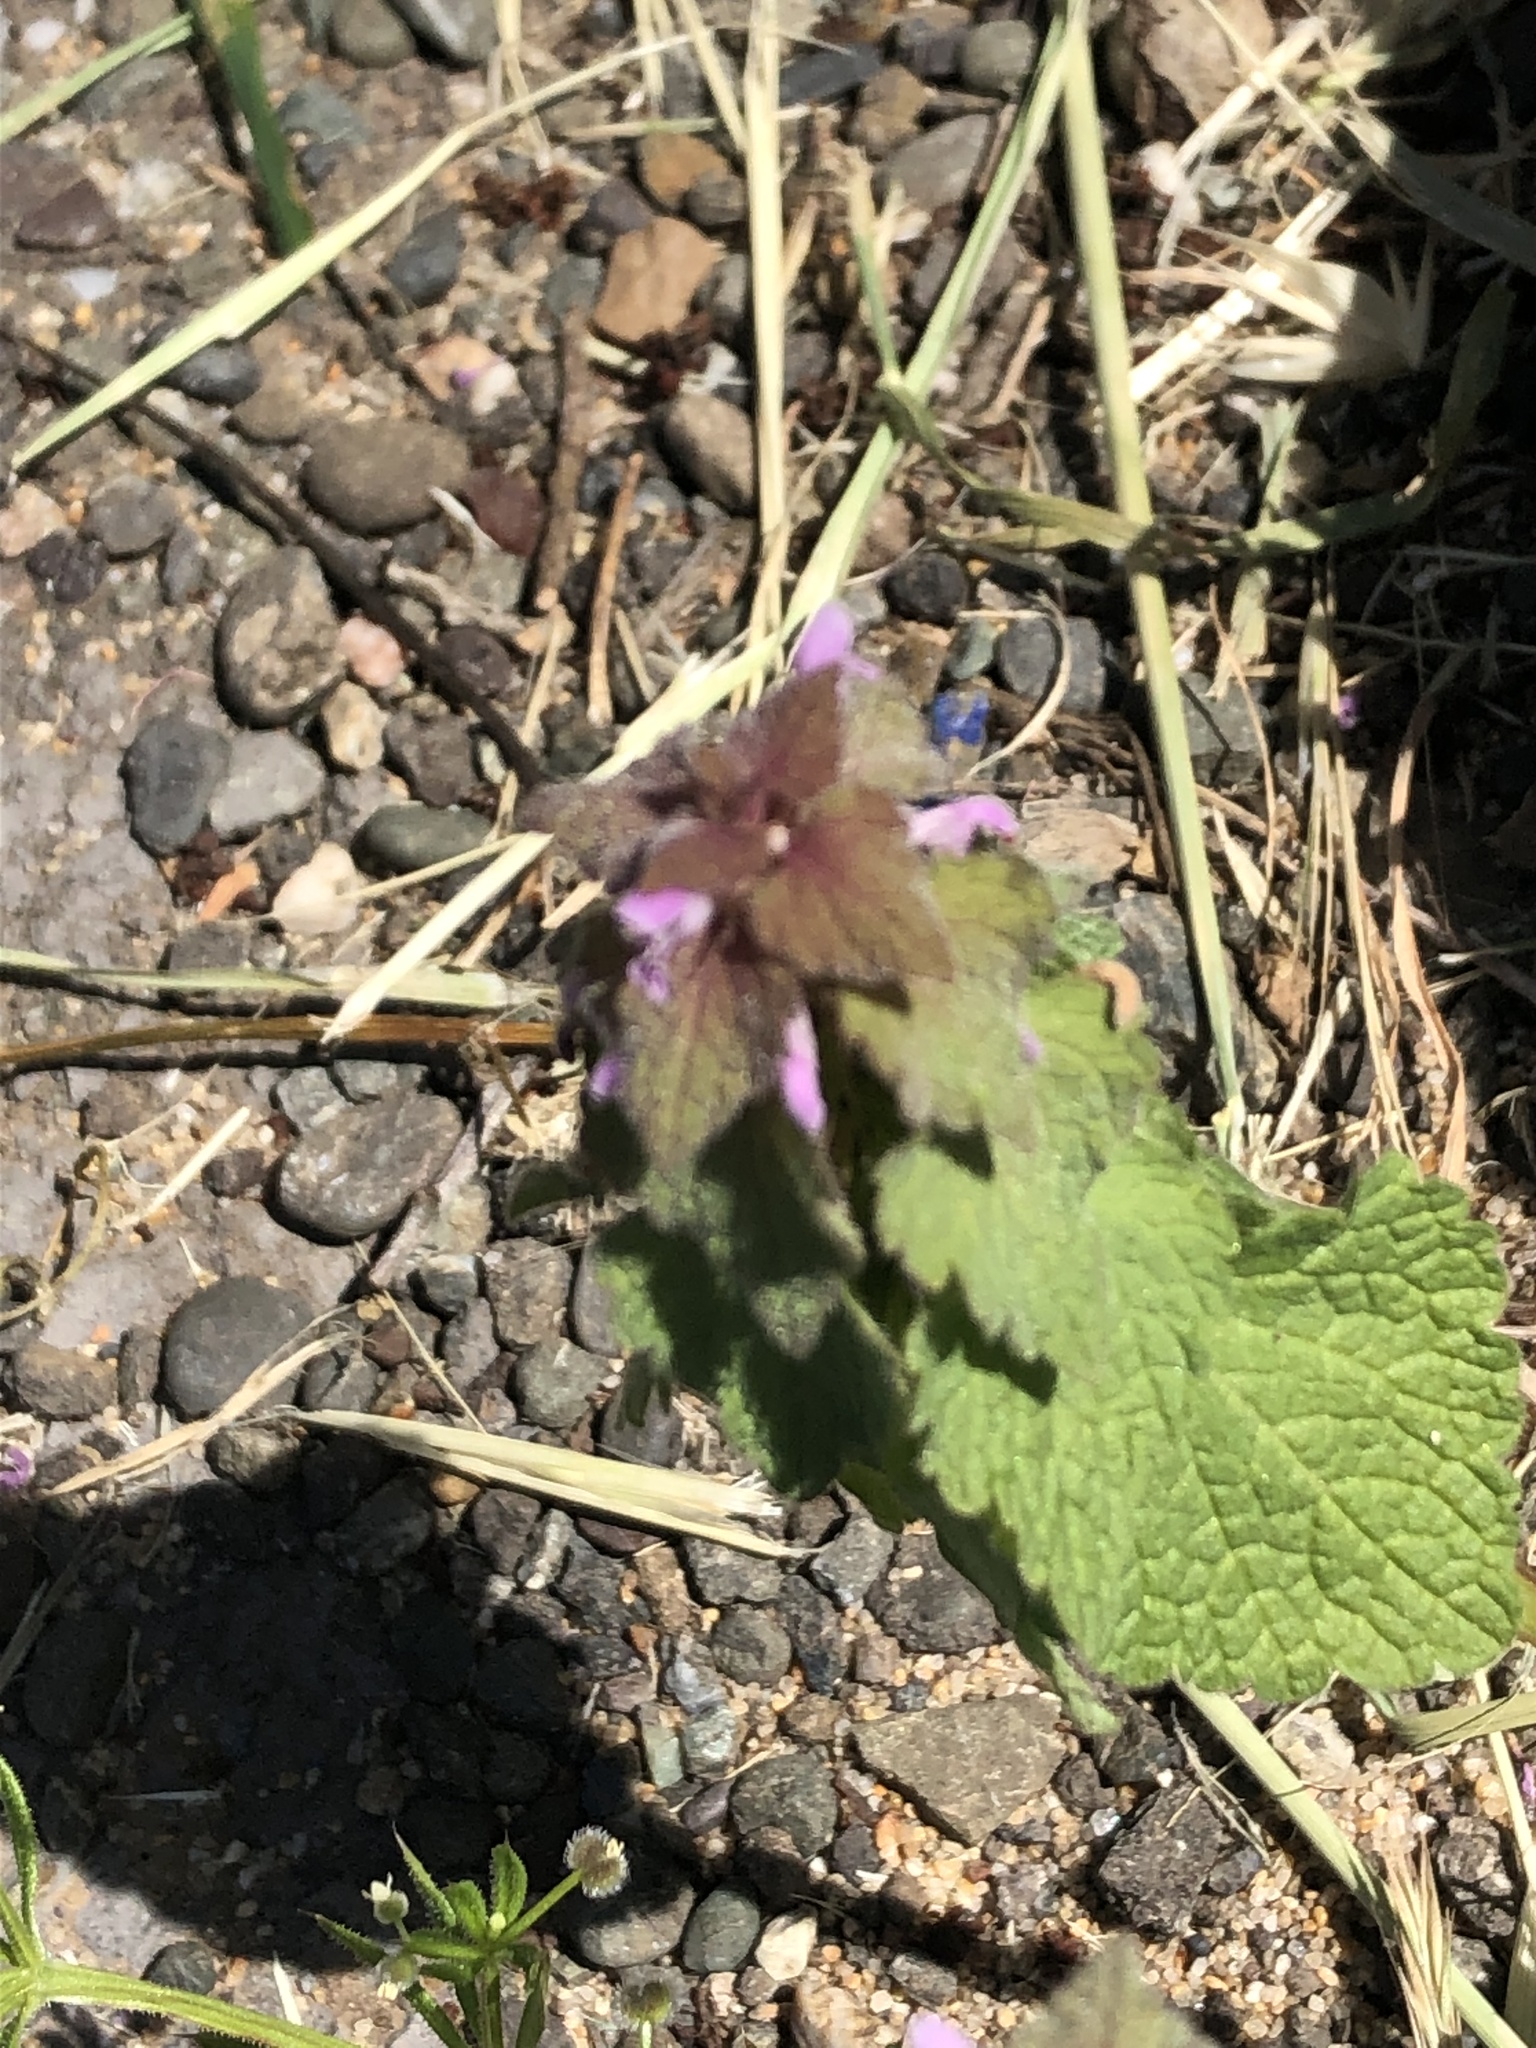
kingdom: Plantae
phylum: Tracheophyta
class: Magnoliopsida
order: Lamiales
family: Lamiaceae
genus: Lamium
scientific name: Lamium purpureum
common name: Red dead-nettle
